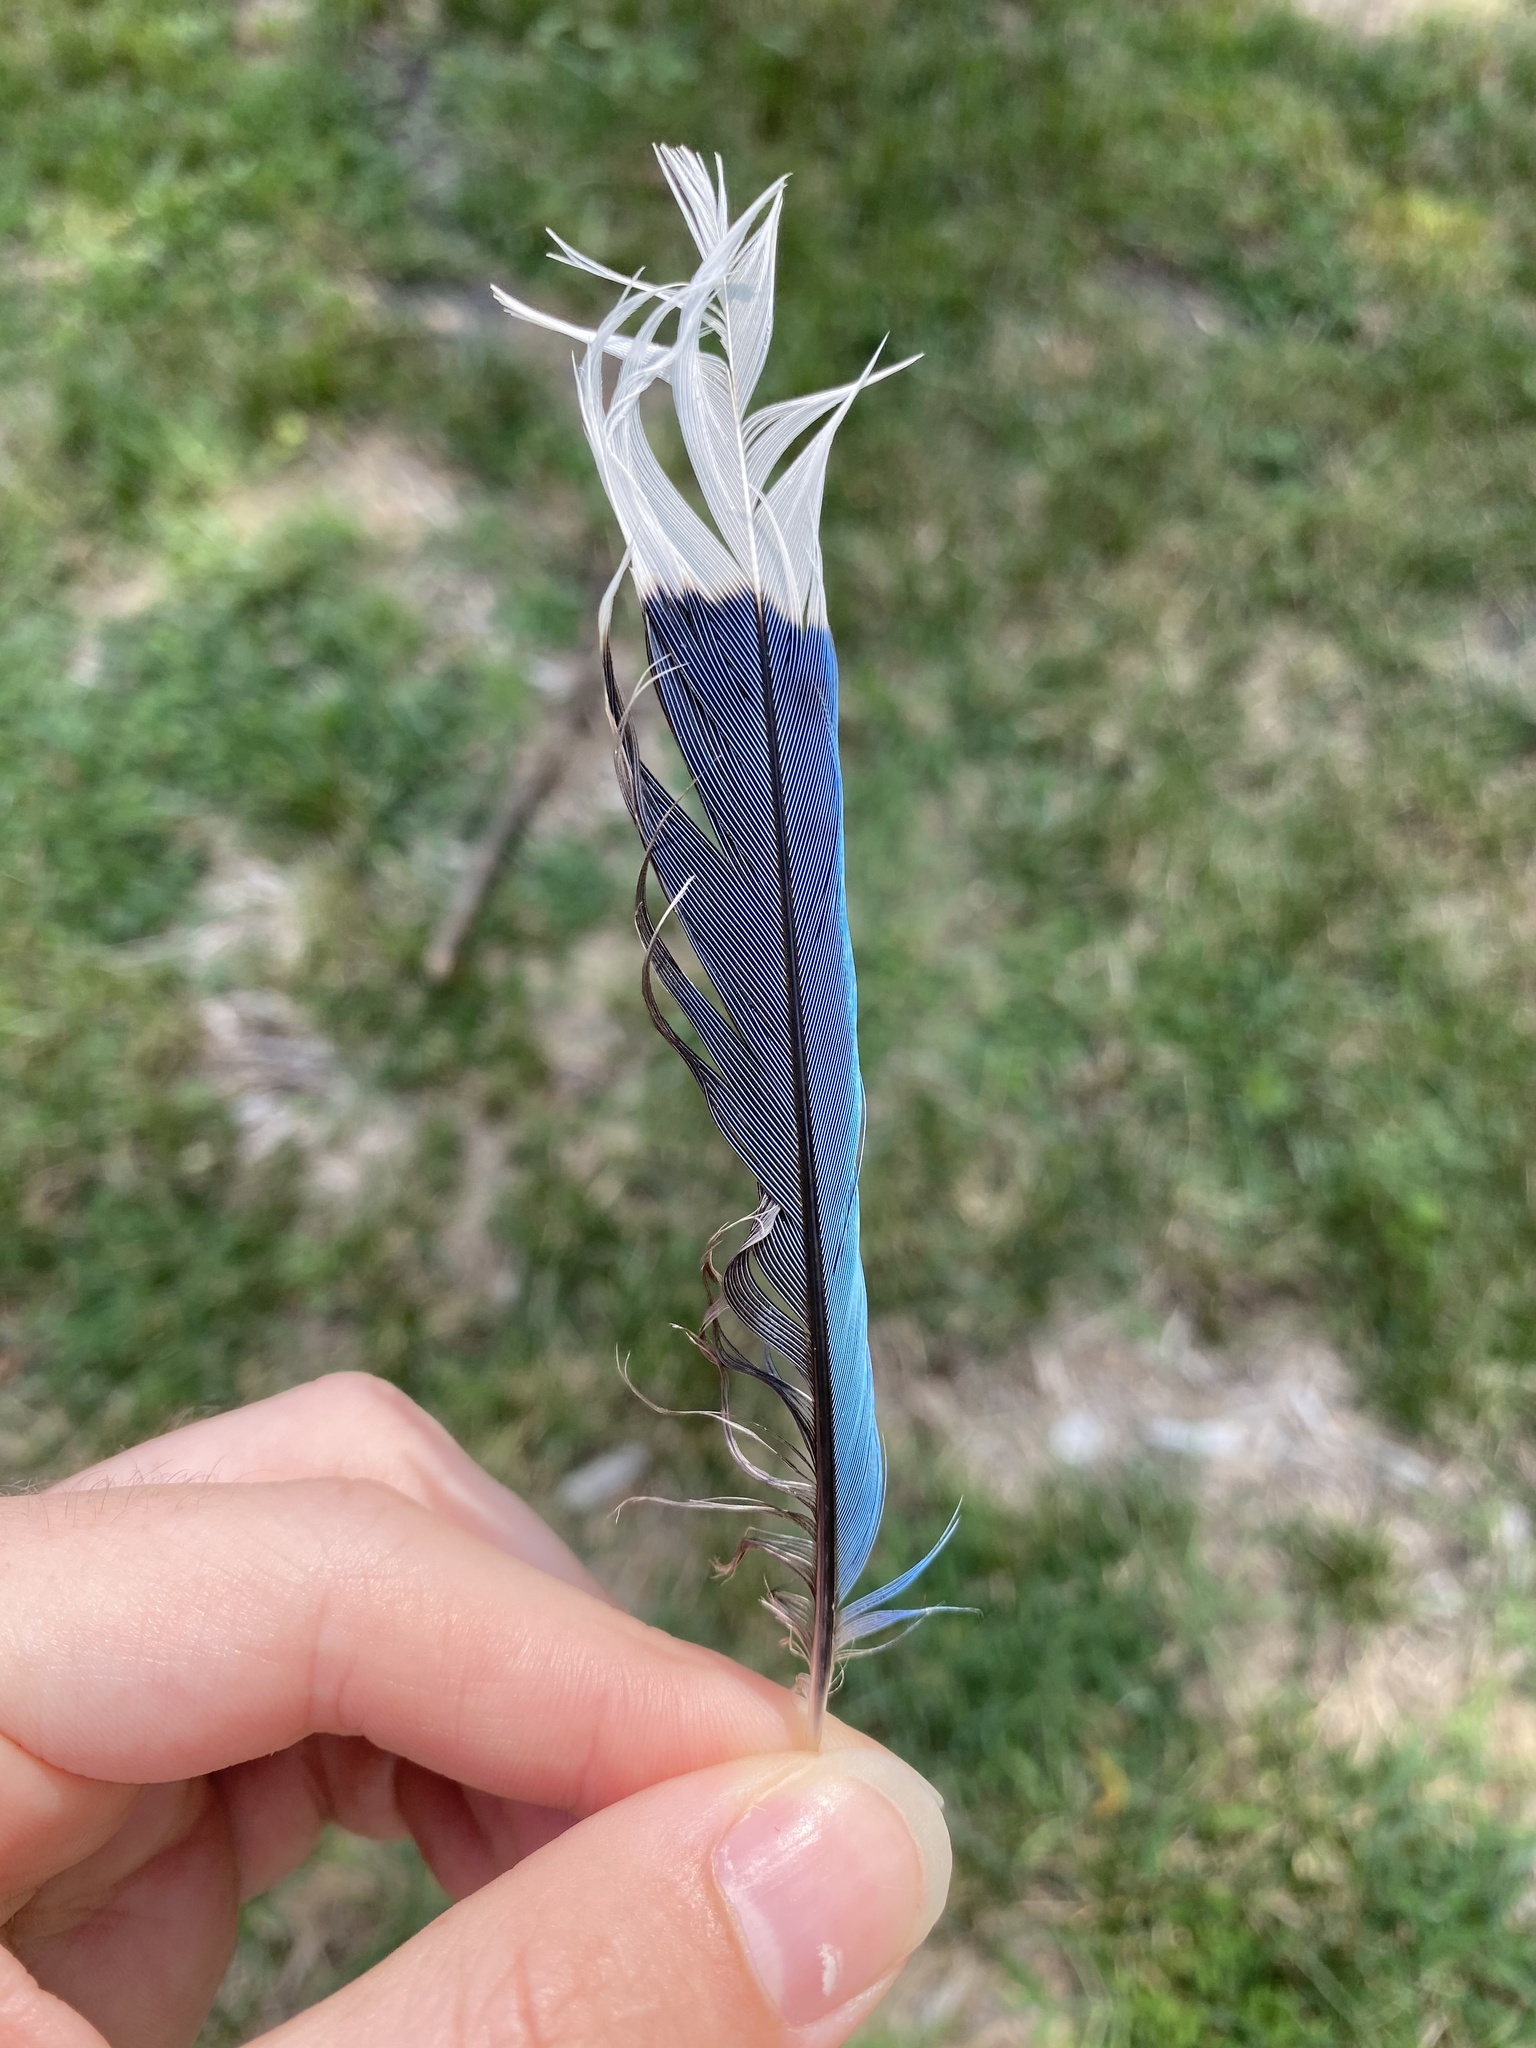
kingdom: Animalia
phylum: Chordata
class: Aves
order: Passeriformes
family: Corvidae
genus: Cyanocitta
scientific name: Cyanocitta cristata
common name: Blue jay
